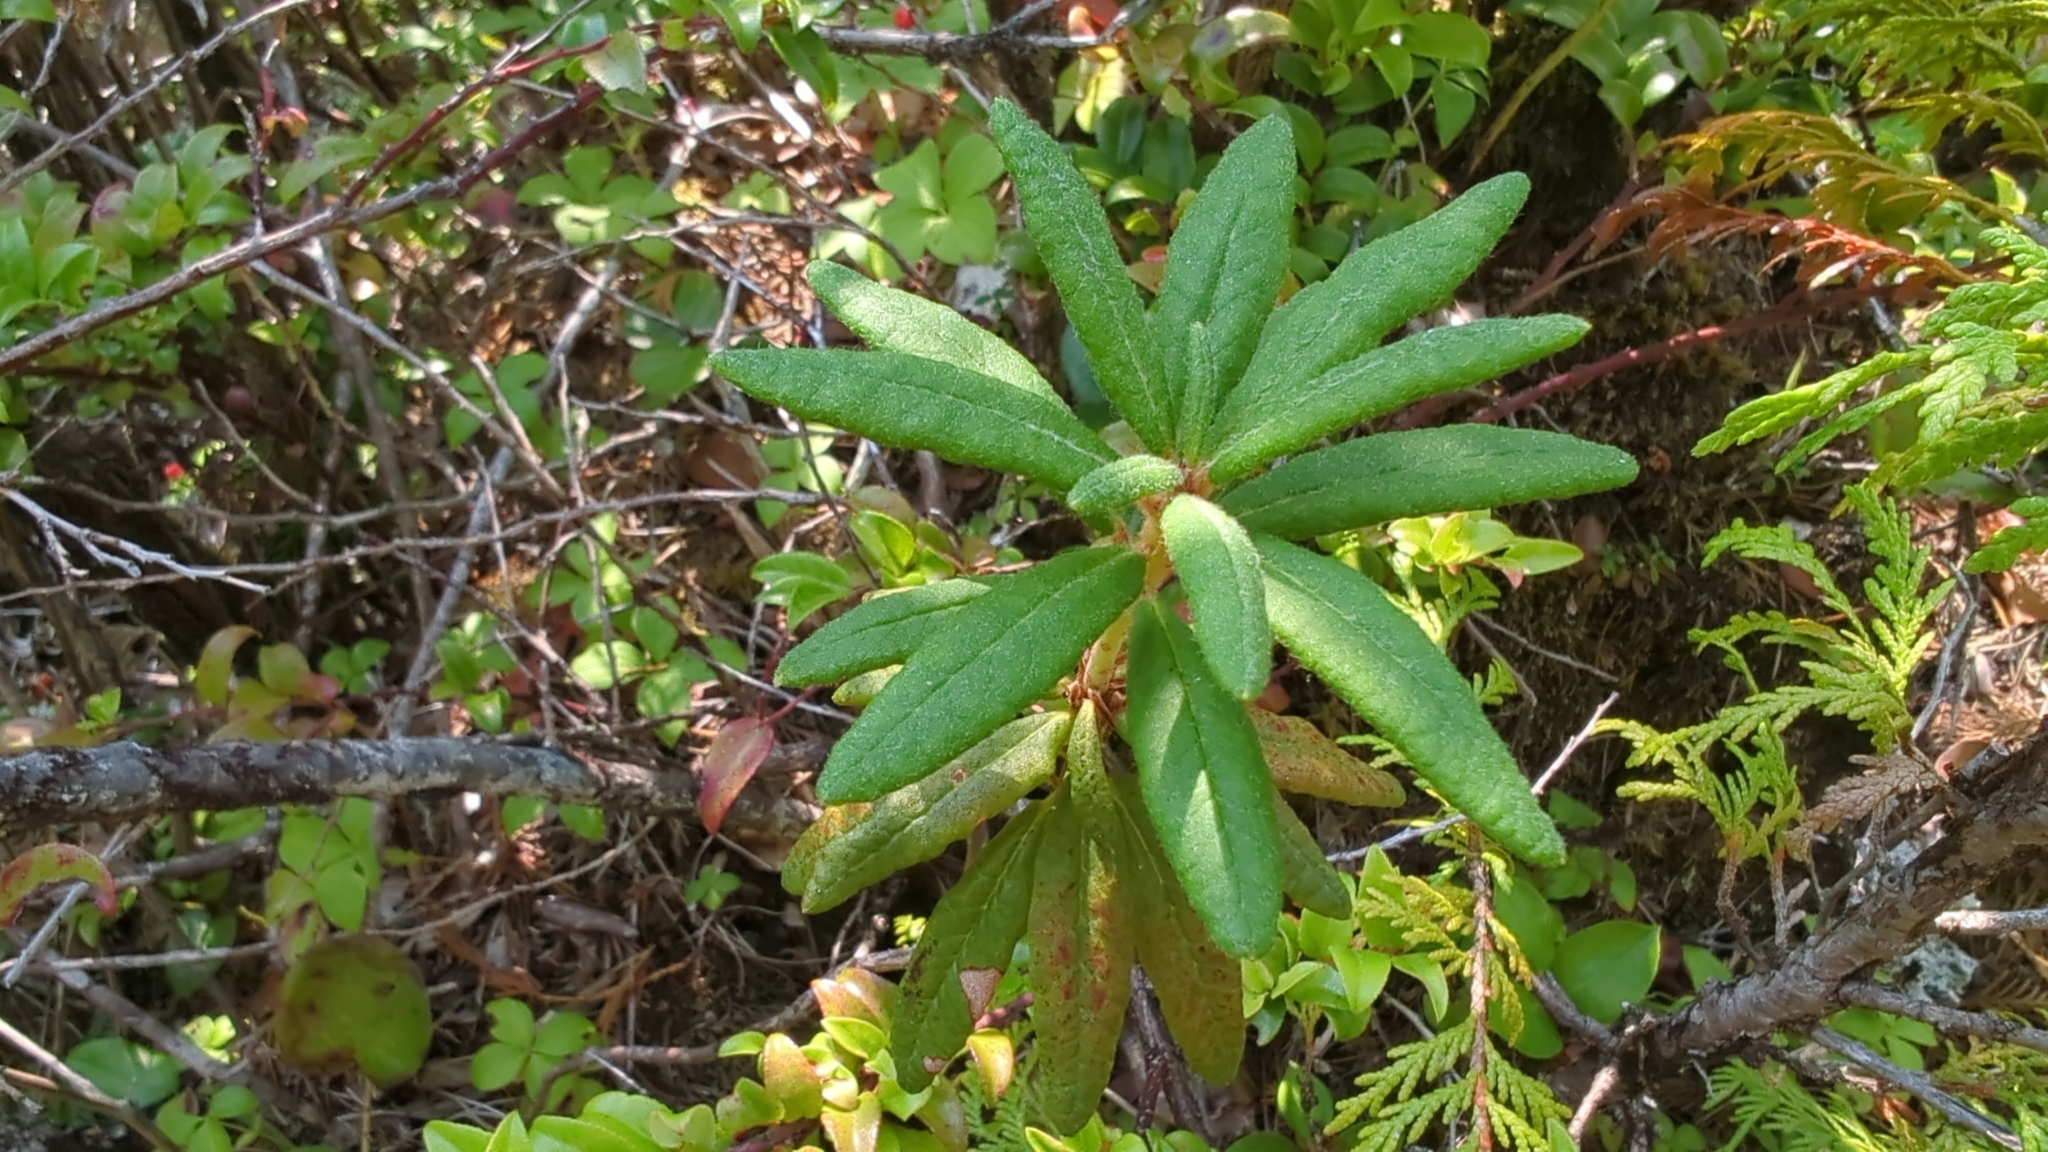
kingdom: Plantae
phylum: Tracheophyta
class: Magnoliopsida
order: Ericales
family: Ericaceae
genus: Rhododendron
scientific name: Rhododendron groenlandicum
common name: Bog labrador tea
